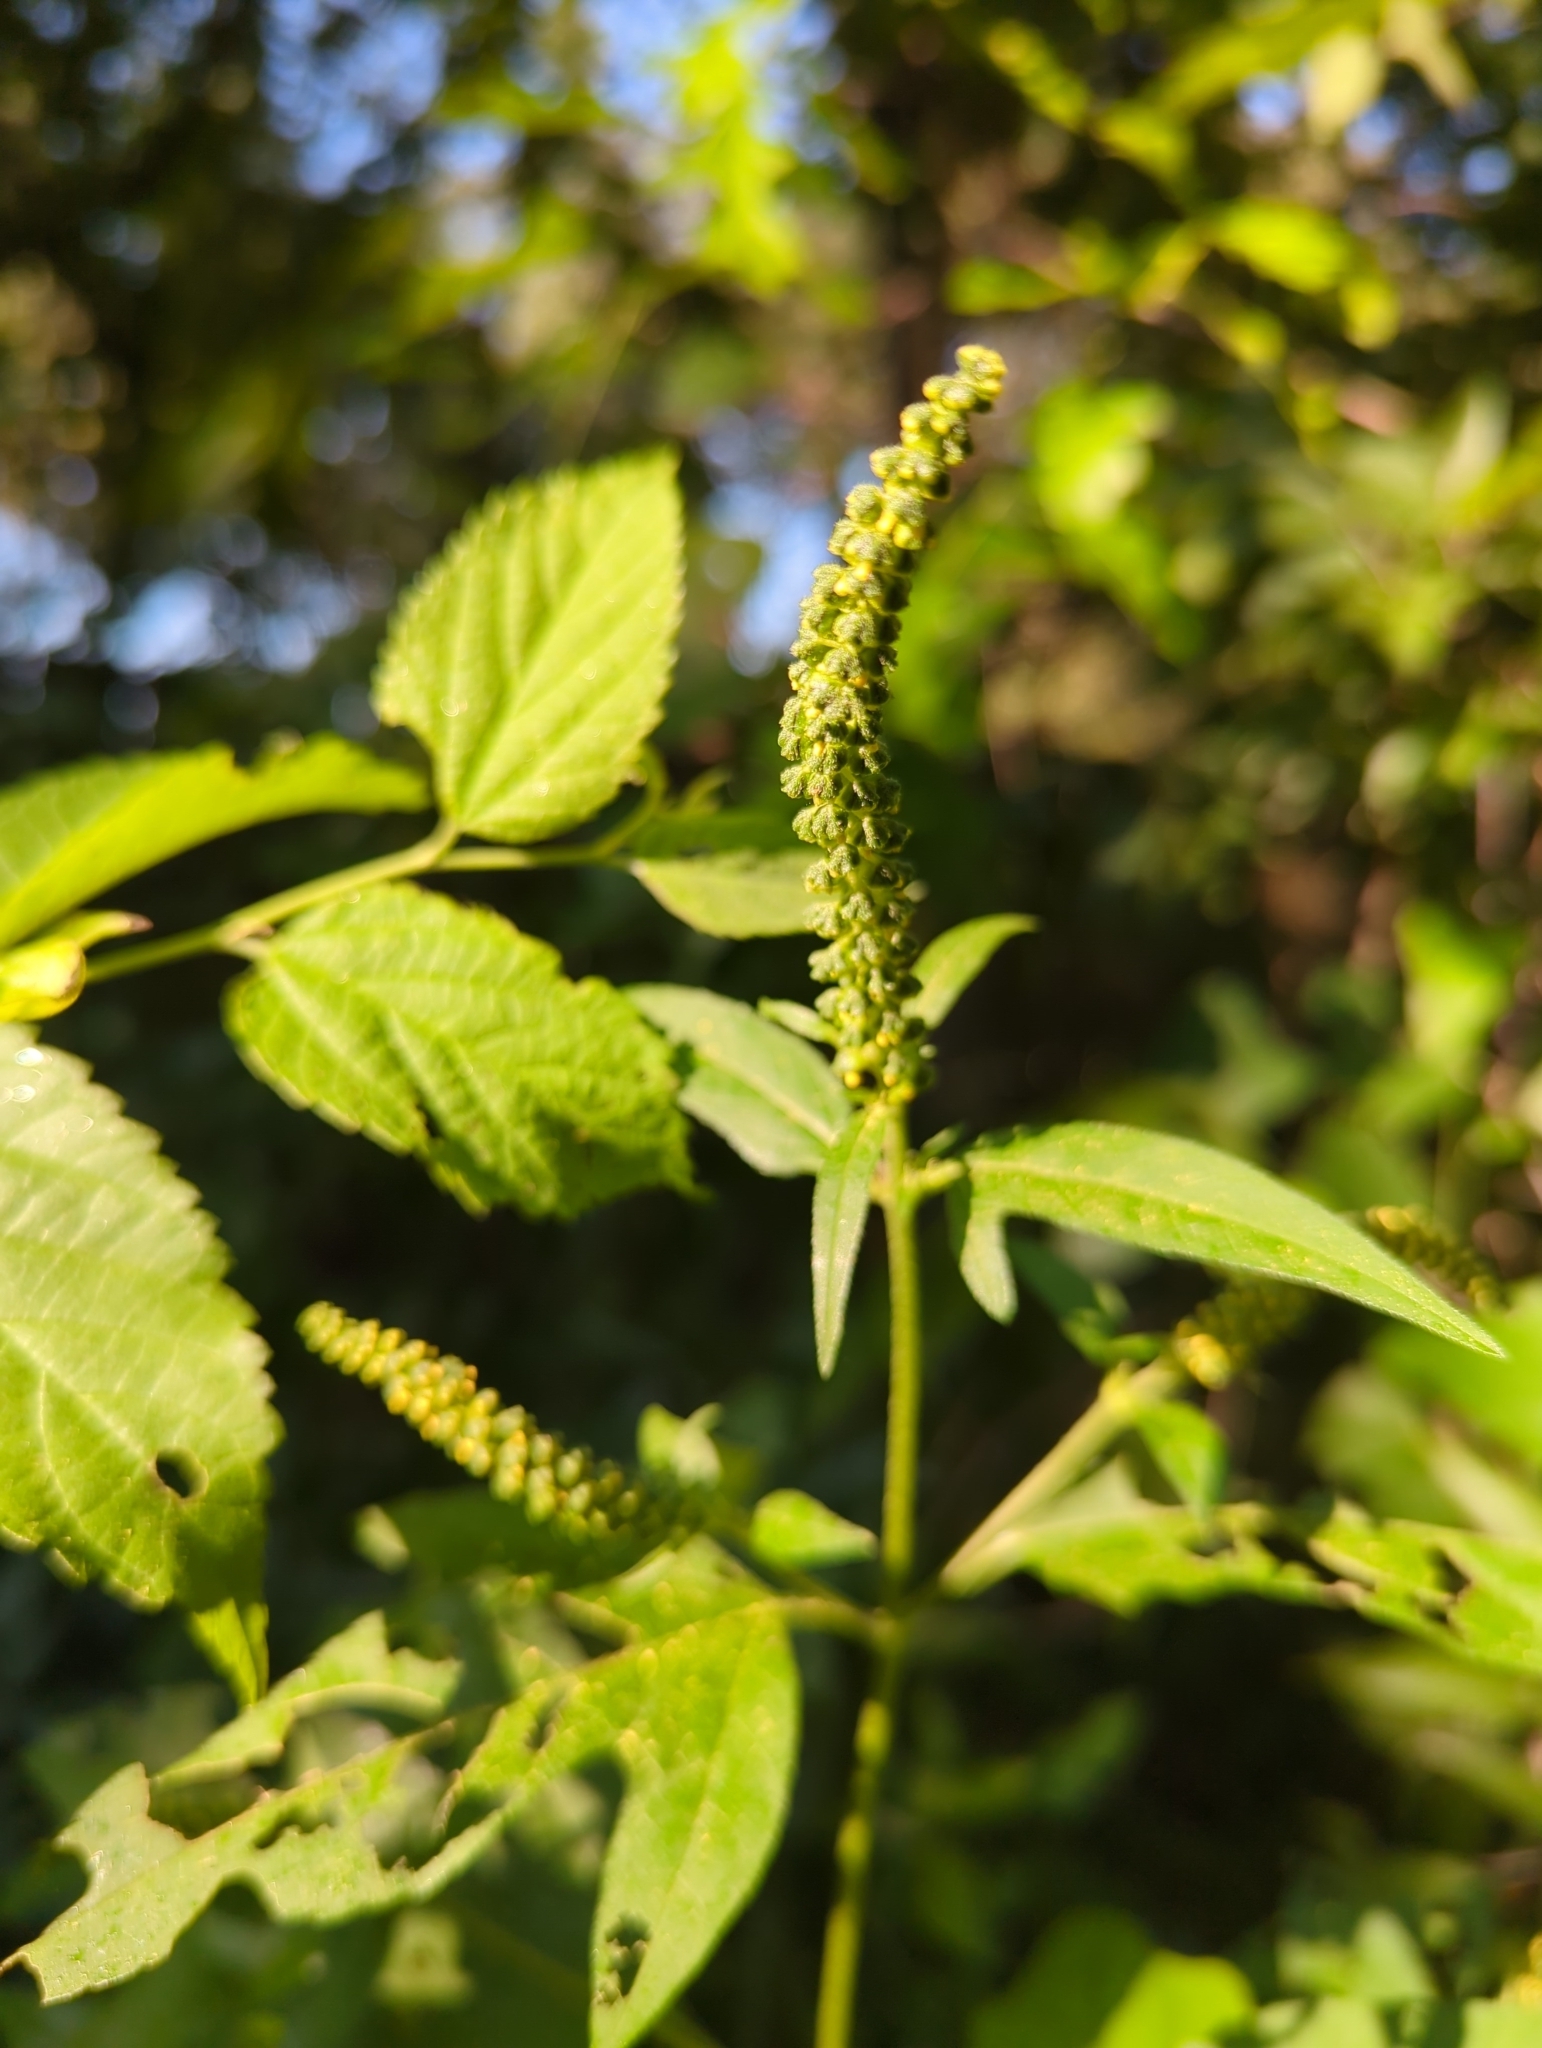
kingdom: Plantae
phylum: Tracheophyta
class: Magnoliopsida
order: Asterales
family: Asteraceae
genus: Ambrosia
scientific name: Ambrosia trifida
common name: Giant ragweed
